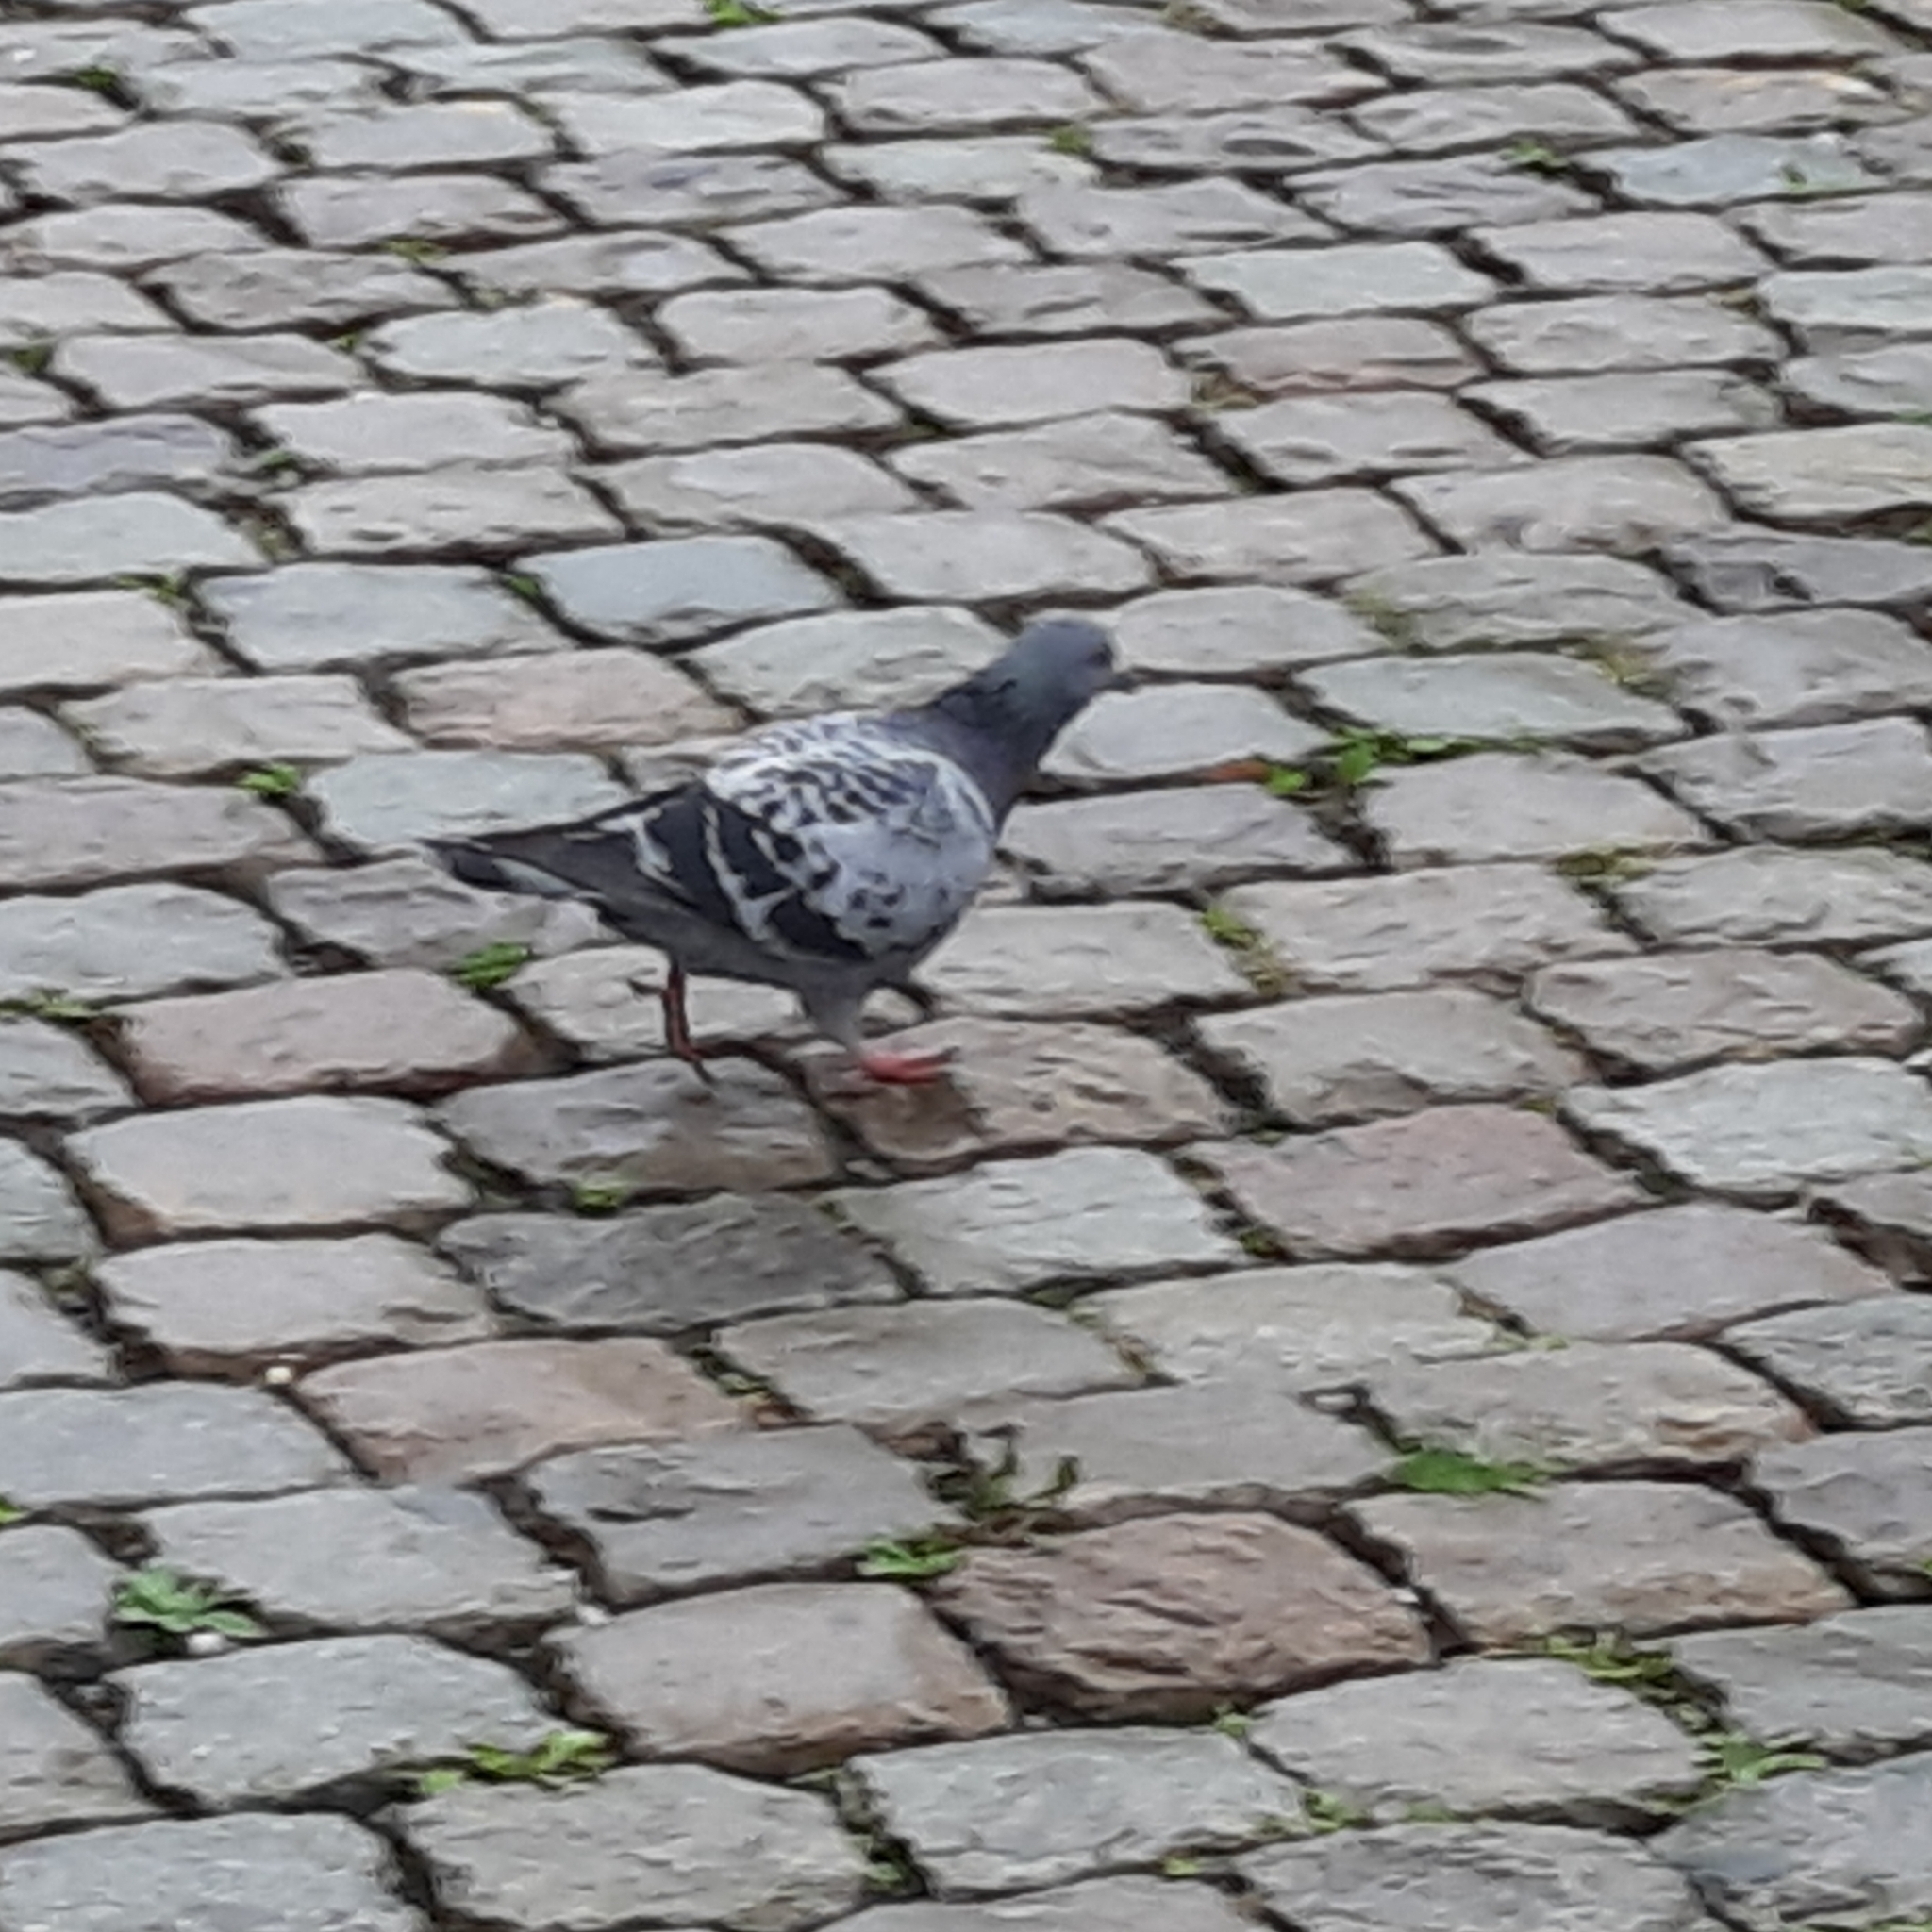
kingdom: Animalia
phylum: Chordata
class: Aves
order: Columbiformes
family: Columbidae
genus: Columba
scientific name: Columba livia
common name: Rock pigeon
